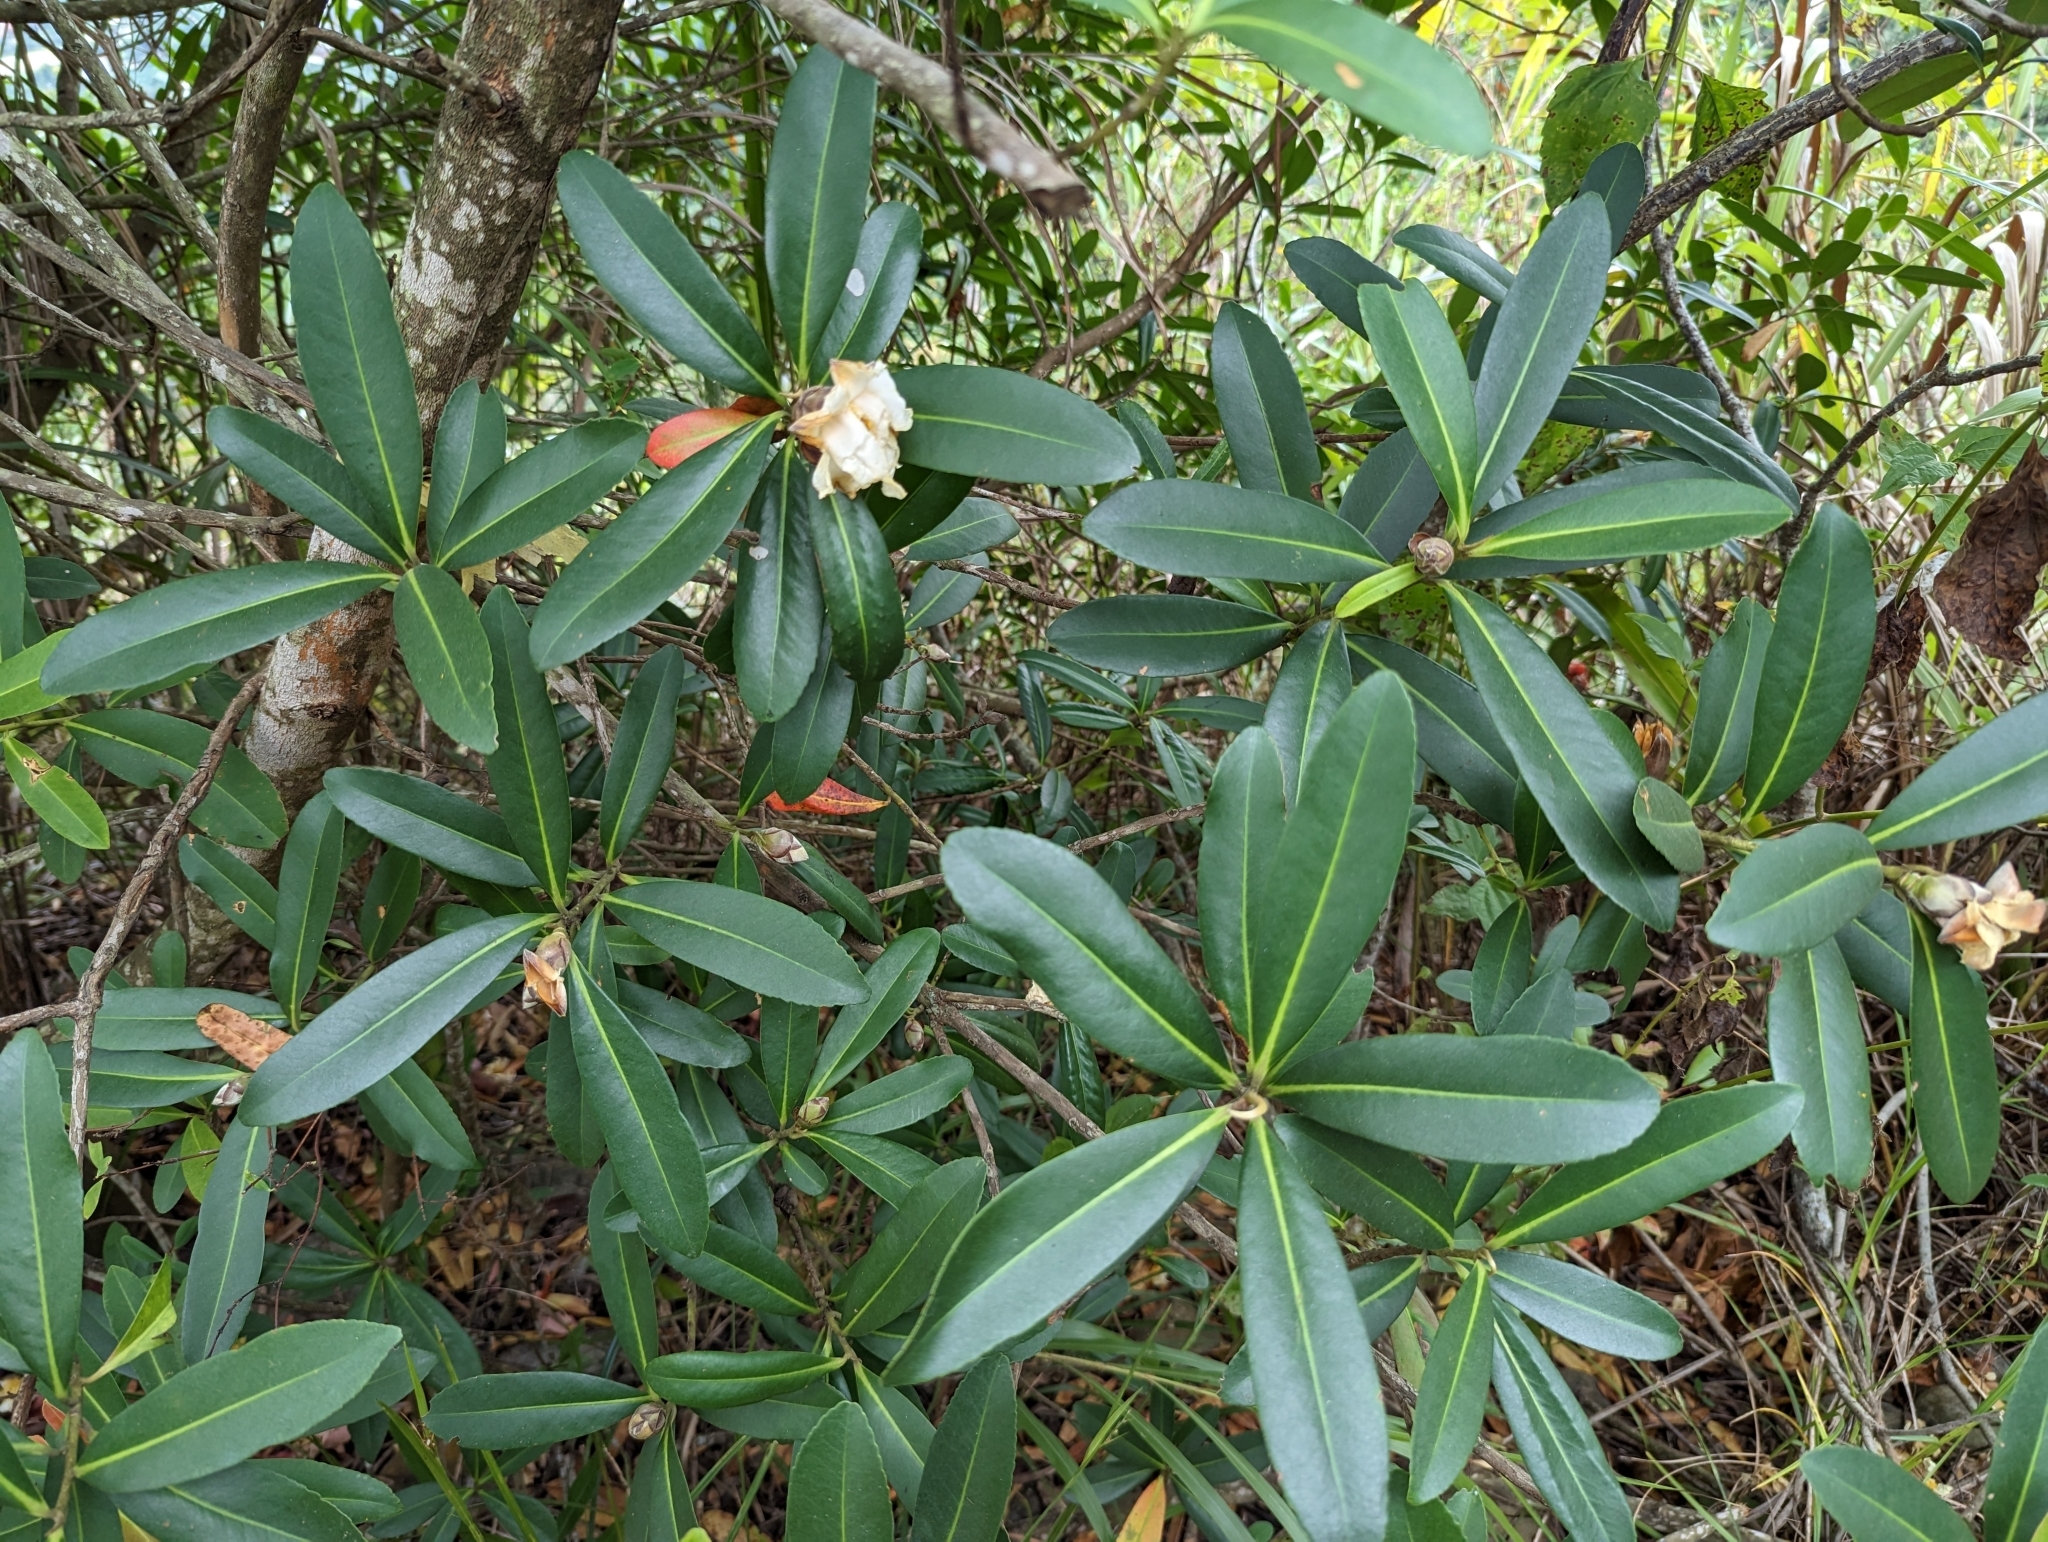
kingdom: Plantae
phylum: Tracheophyta
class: Magnoliopsida
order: Ericales
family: Theaceae
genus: Polyspora
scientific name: Polyspora axillaris
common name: Fried egg tree
